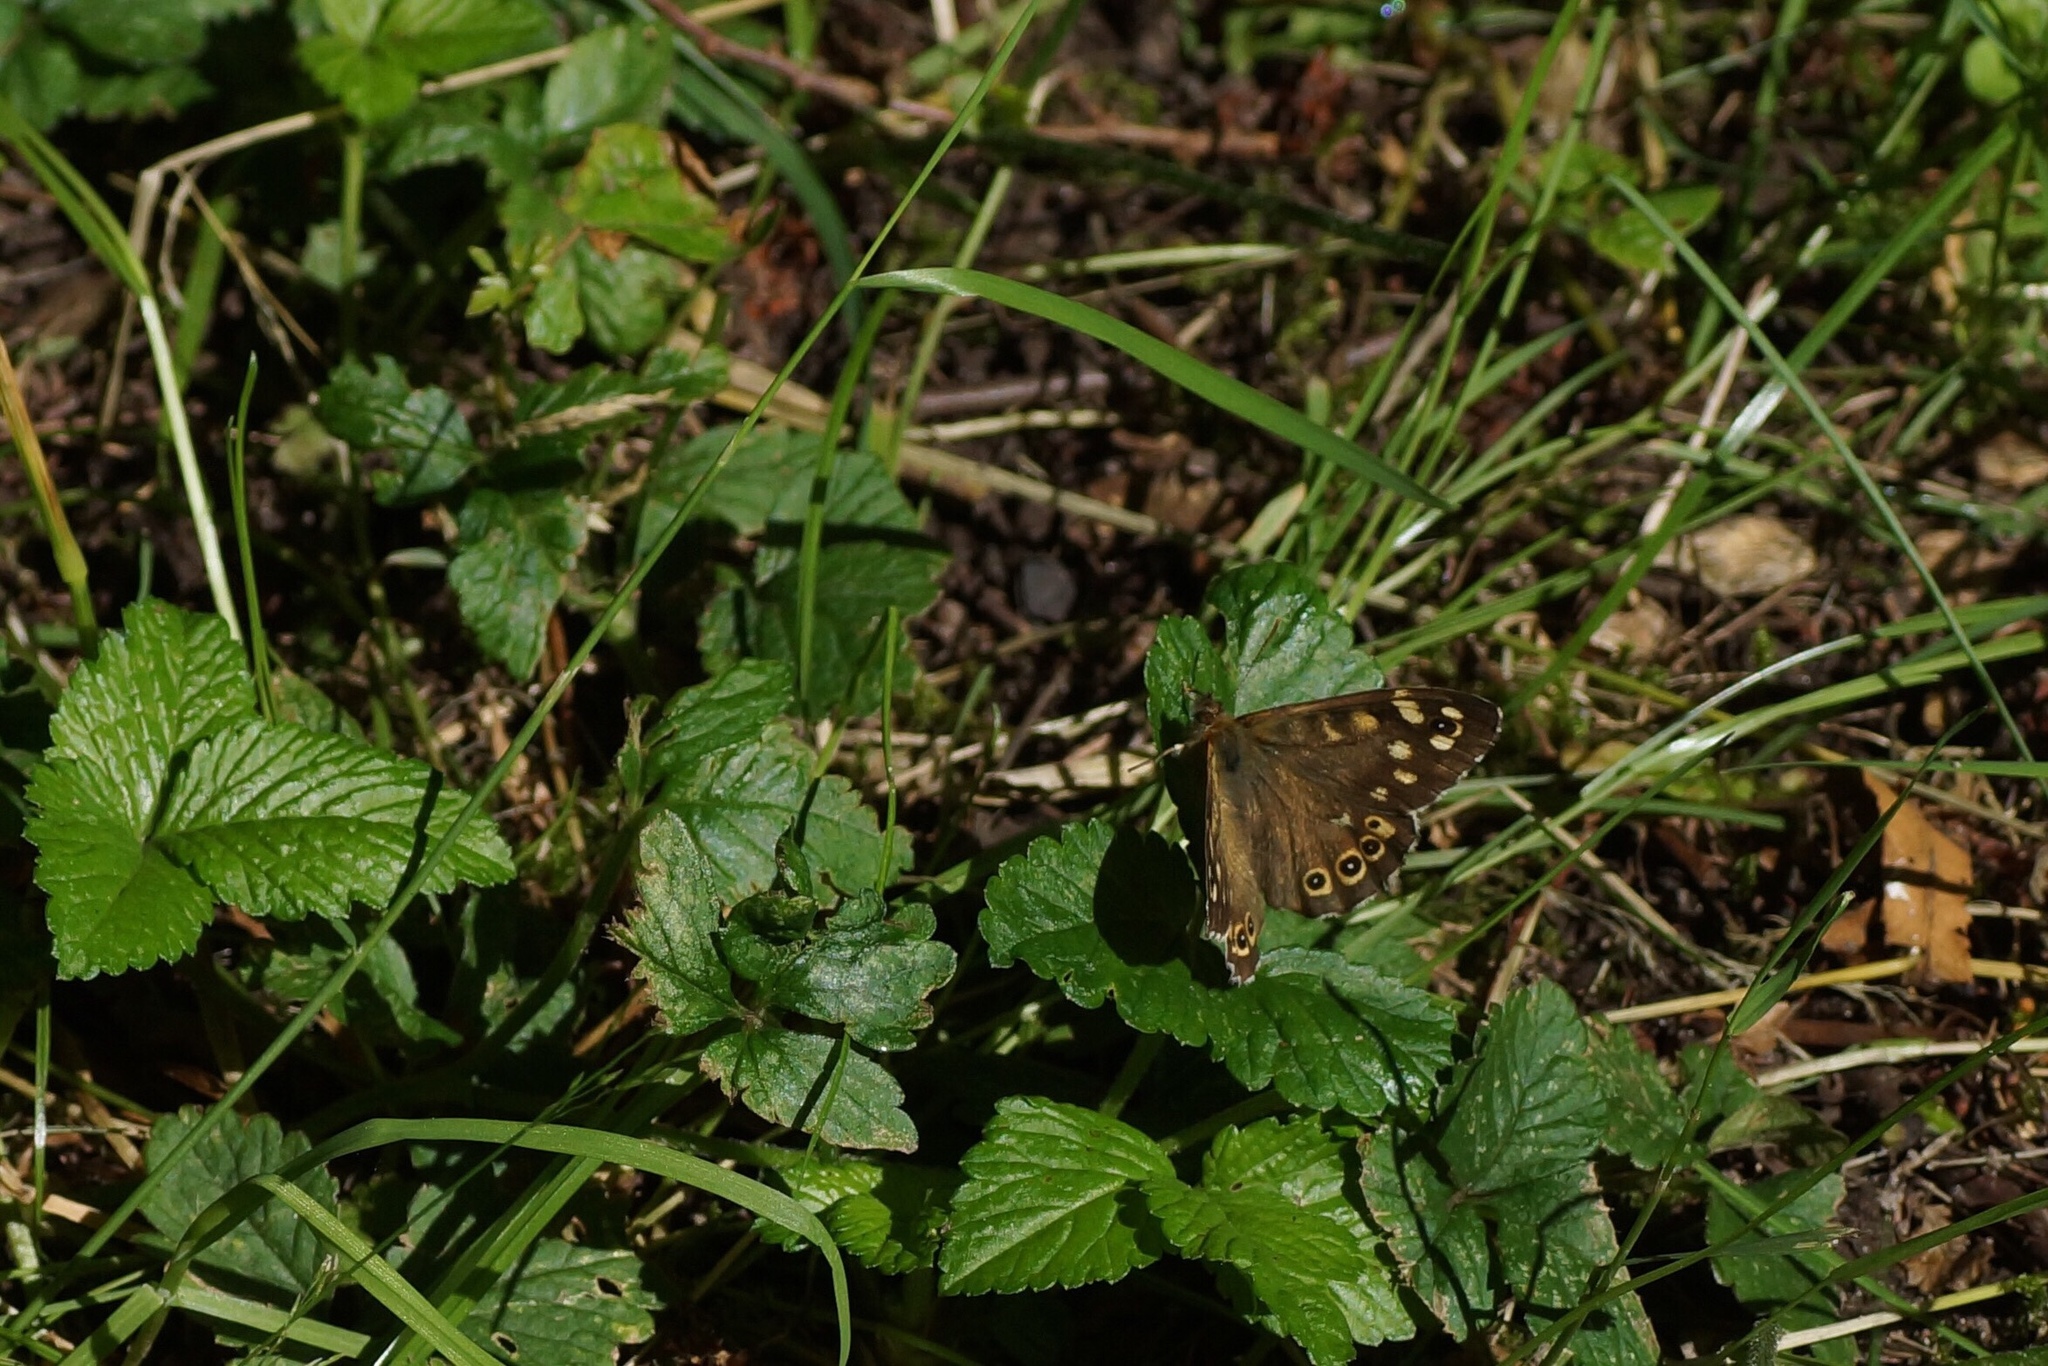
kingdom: Animalia
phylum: Arthropoda
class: Insecta
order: Lepidoptera
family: Nymphalidae
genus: Pararge
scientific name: Pararge aegeria
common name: Speckled wood
